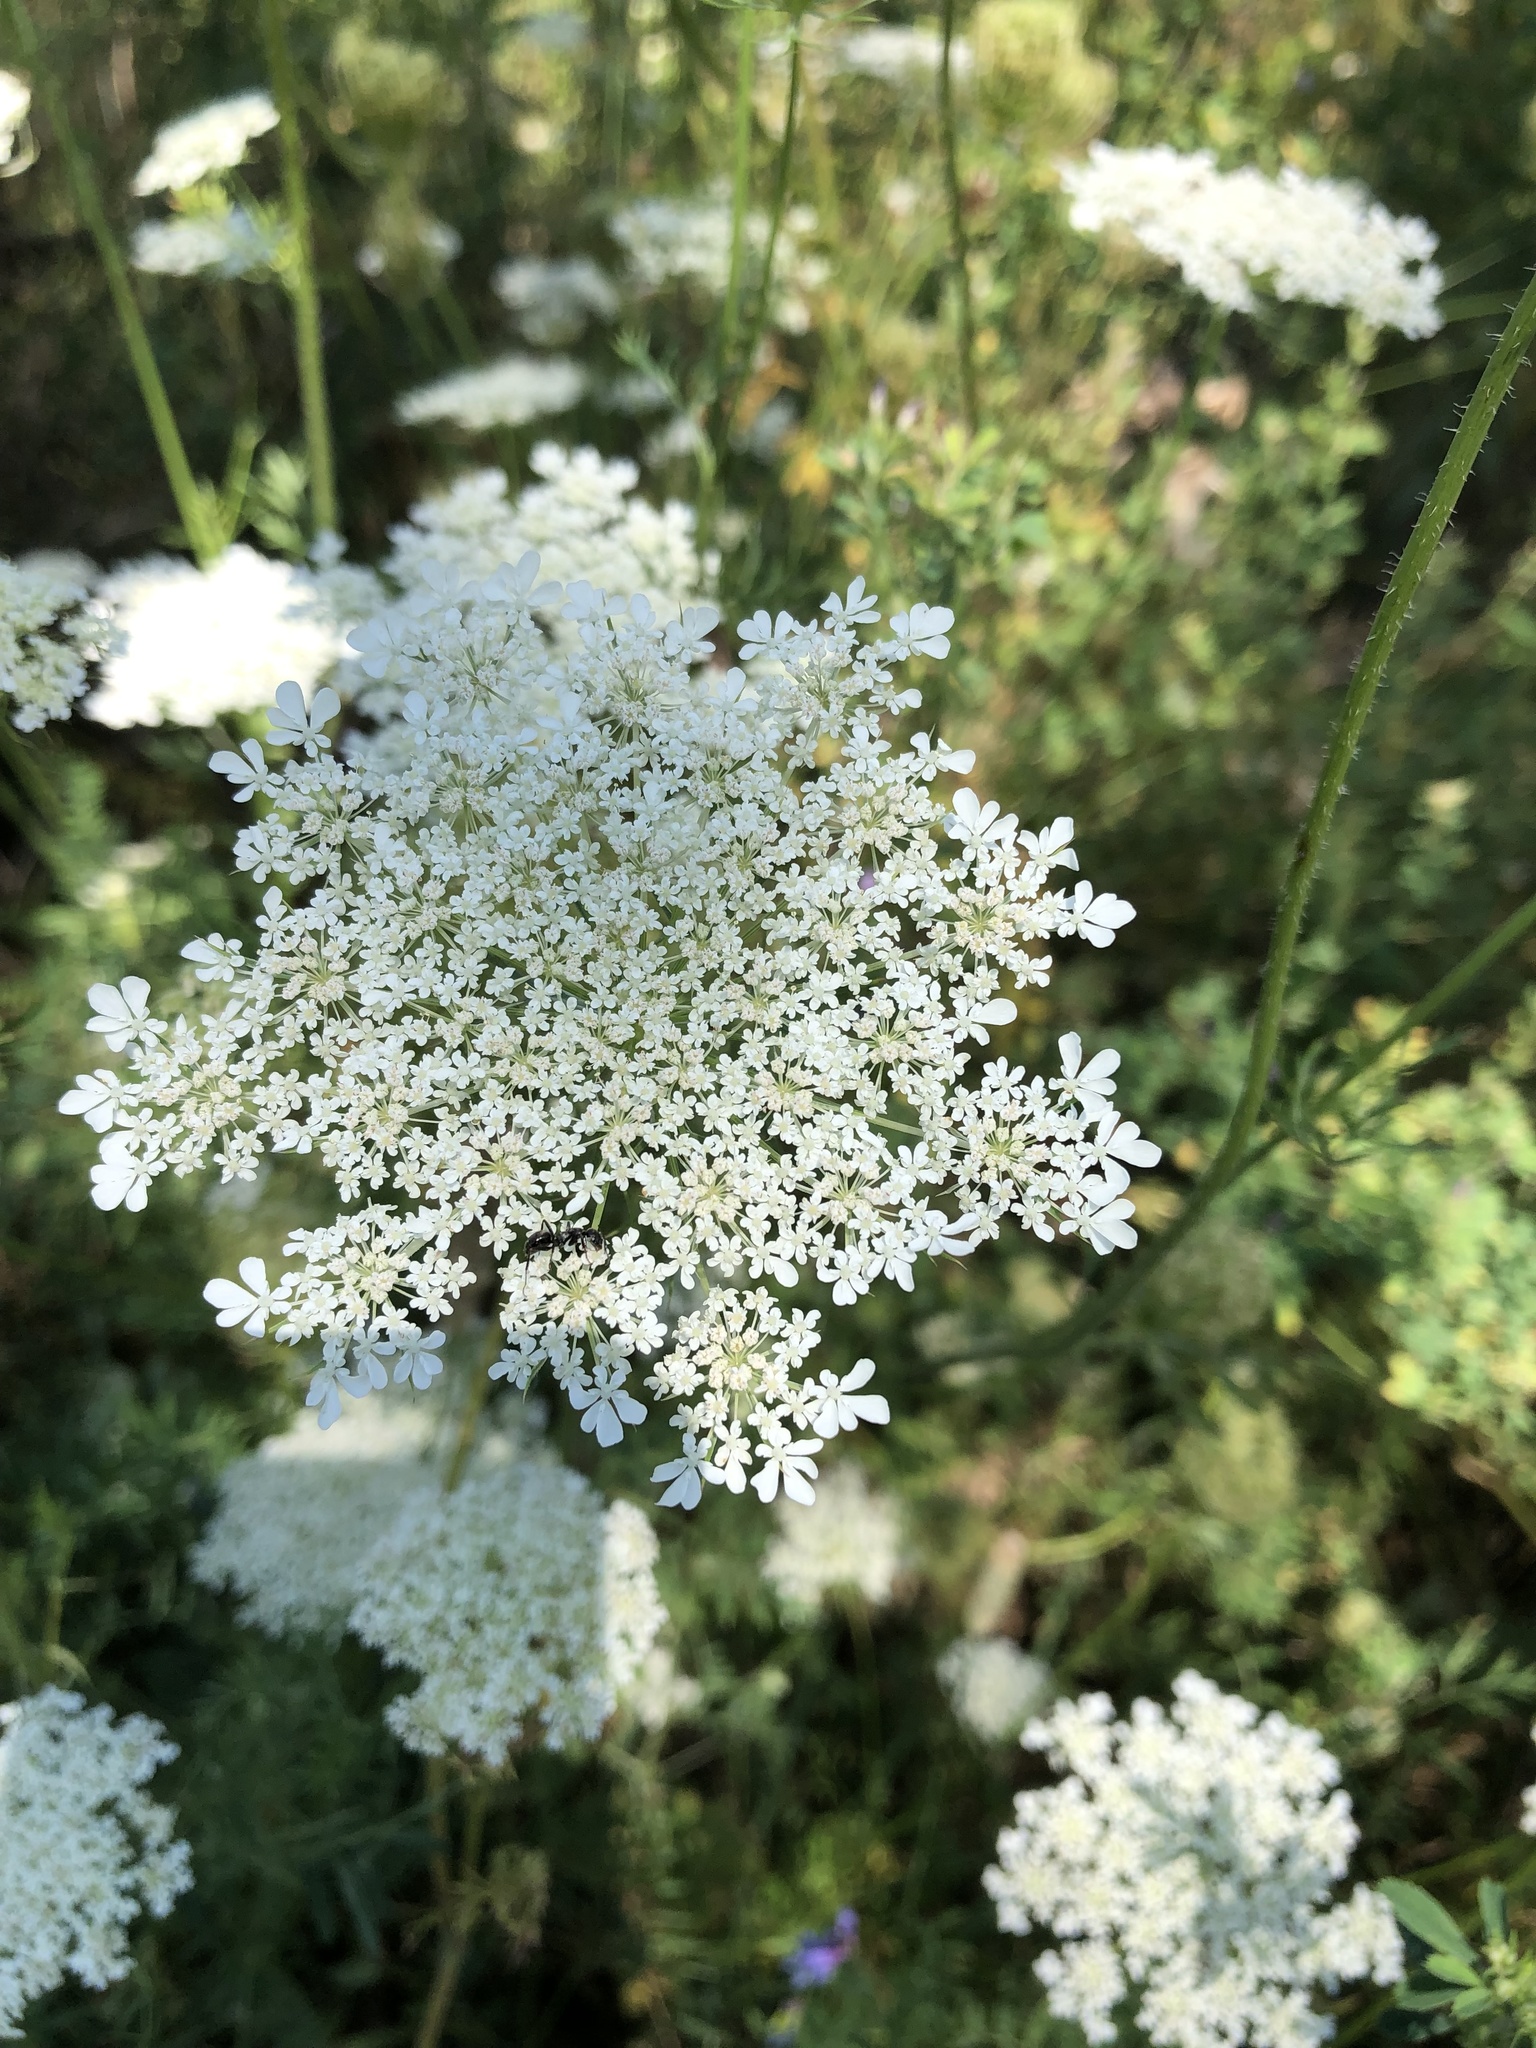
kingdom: Plantae
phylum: Tracheophyta
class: Magnoliopsida
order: Apiales
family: Apiaceae
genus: Daucus
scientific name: Daucus carota
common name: Wild carrot
